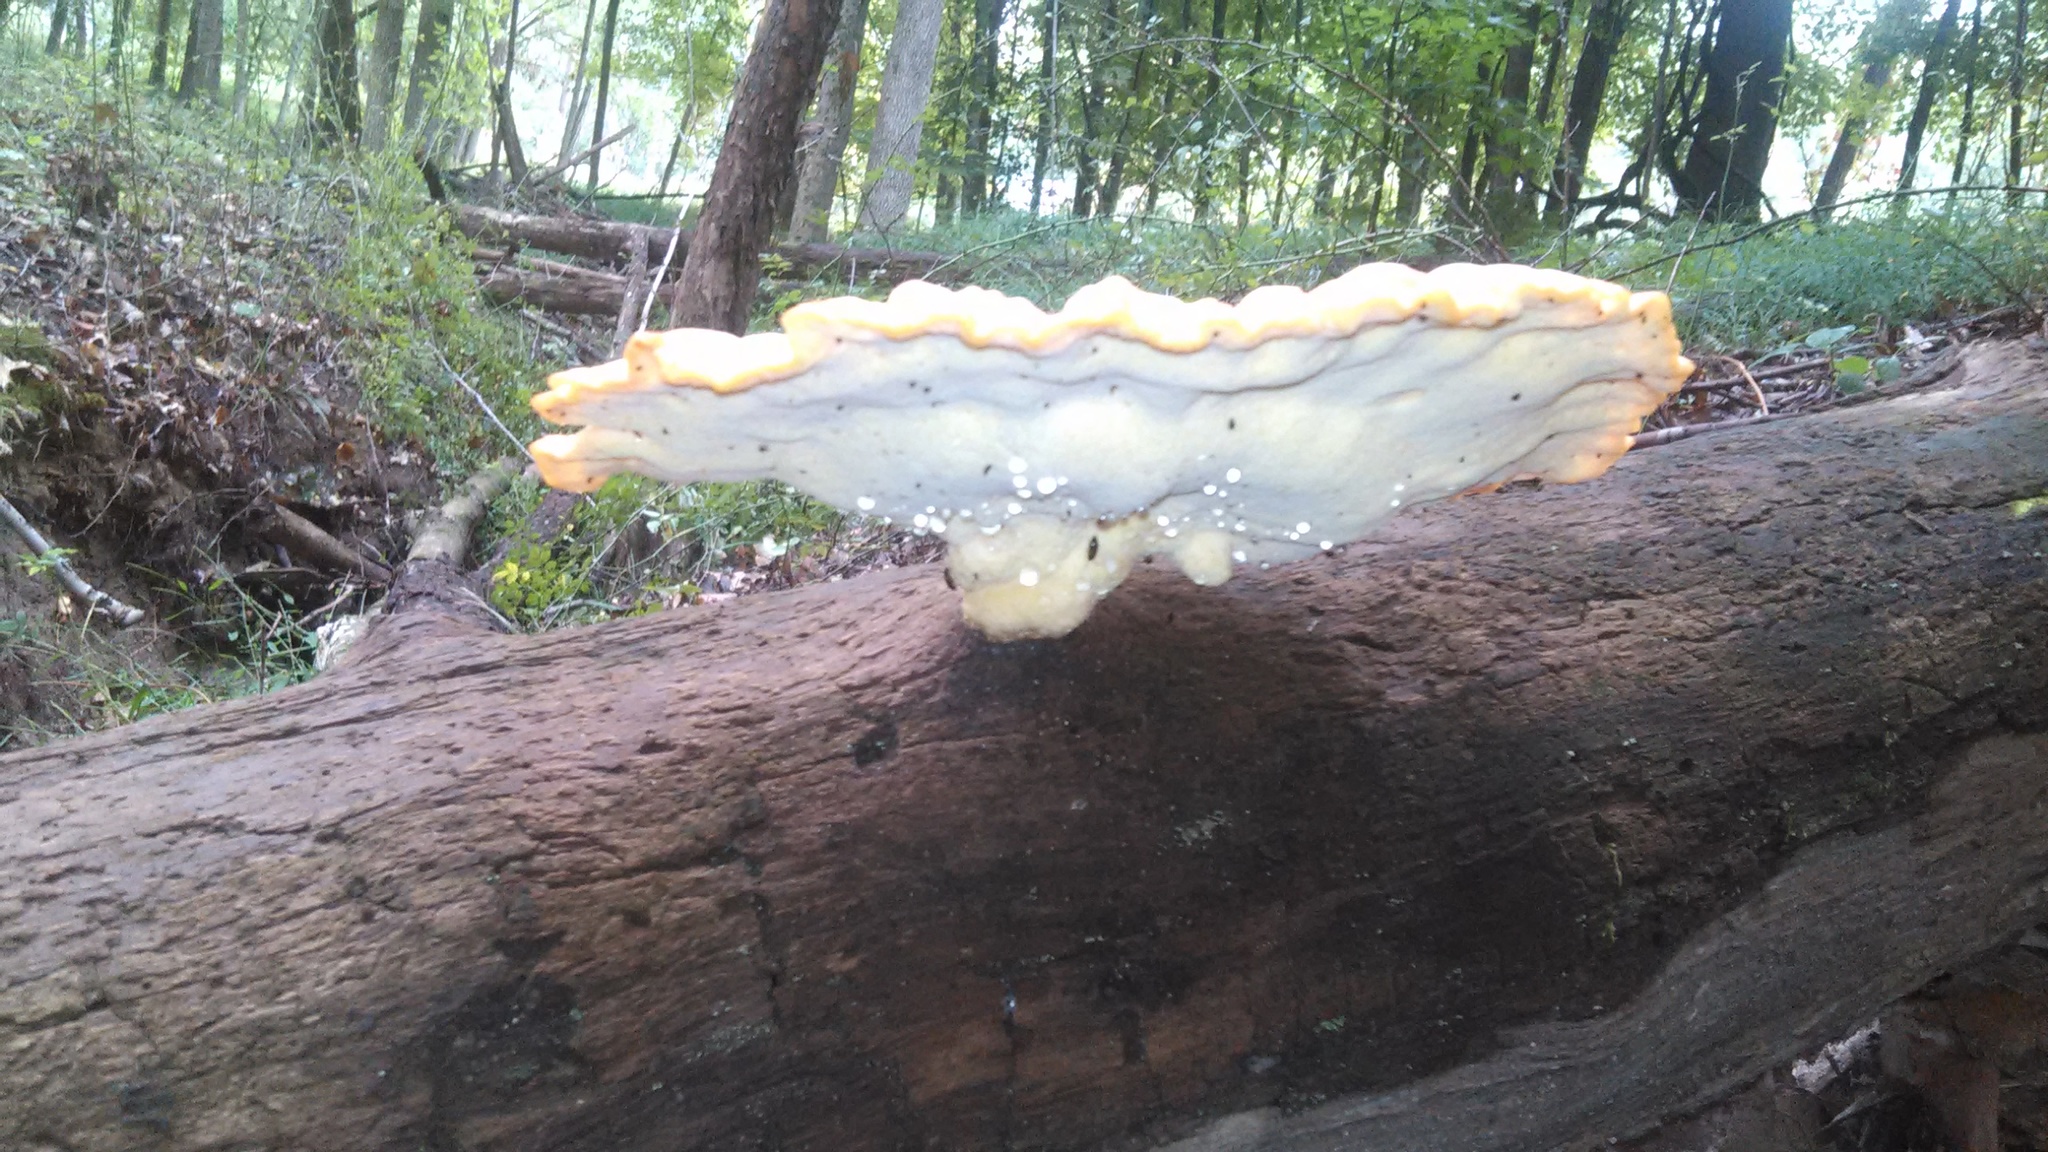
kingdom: Fungi
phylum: Basidiomycota
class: Agaricomycetes
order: Polyporales
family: Laetiporaceae
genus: Laetiporus
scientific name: Laetiporus sulphureus
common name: Chicken of the woods
